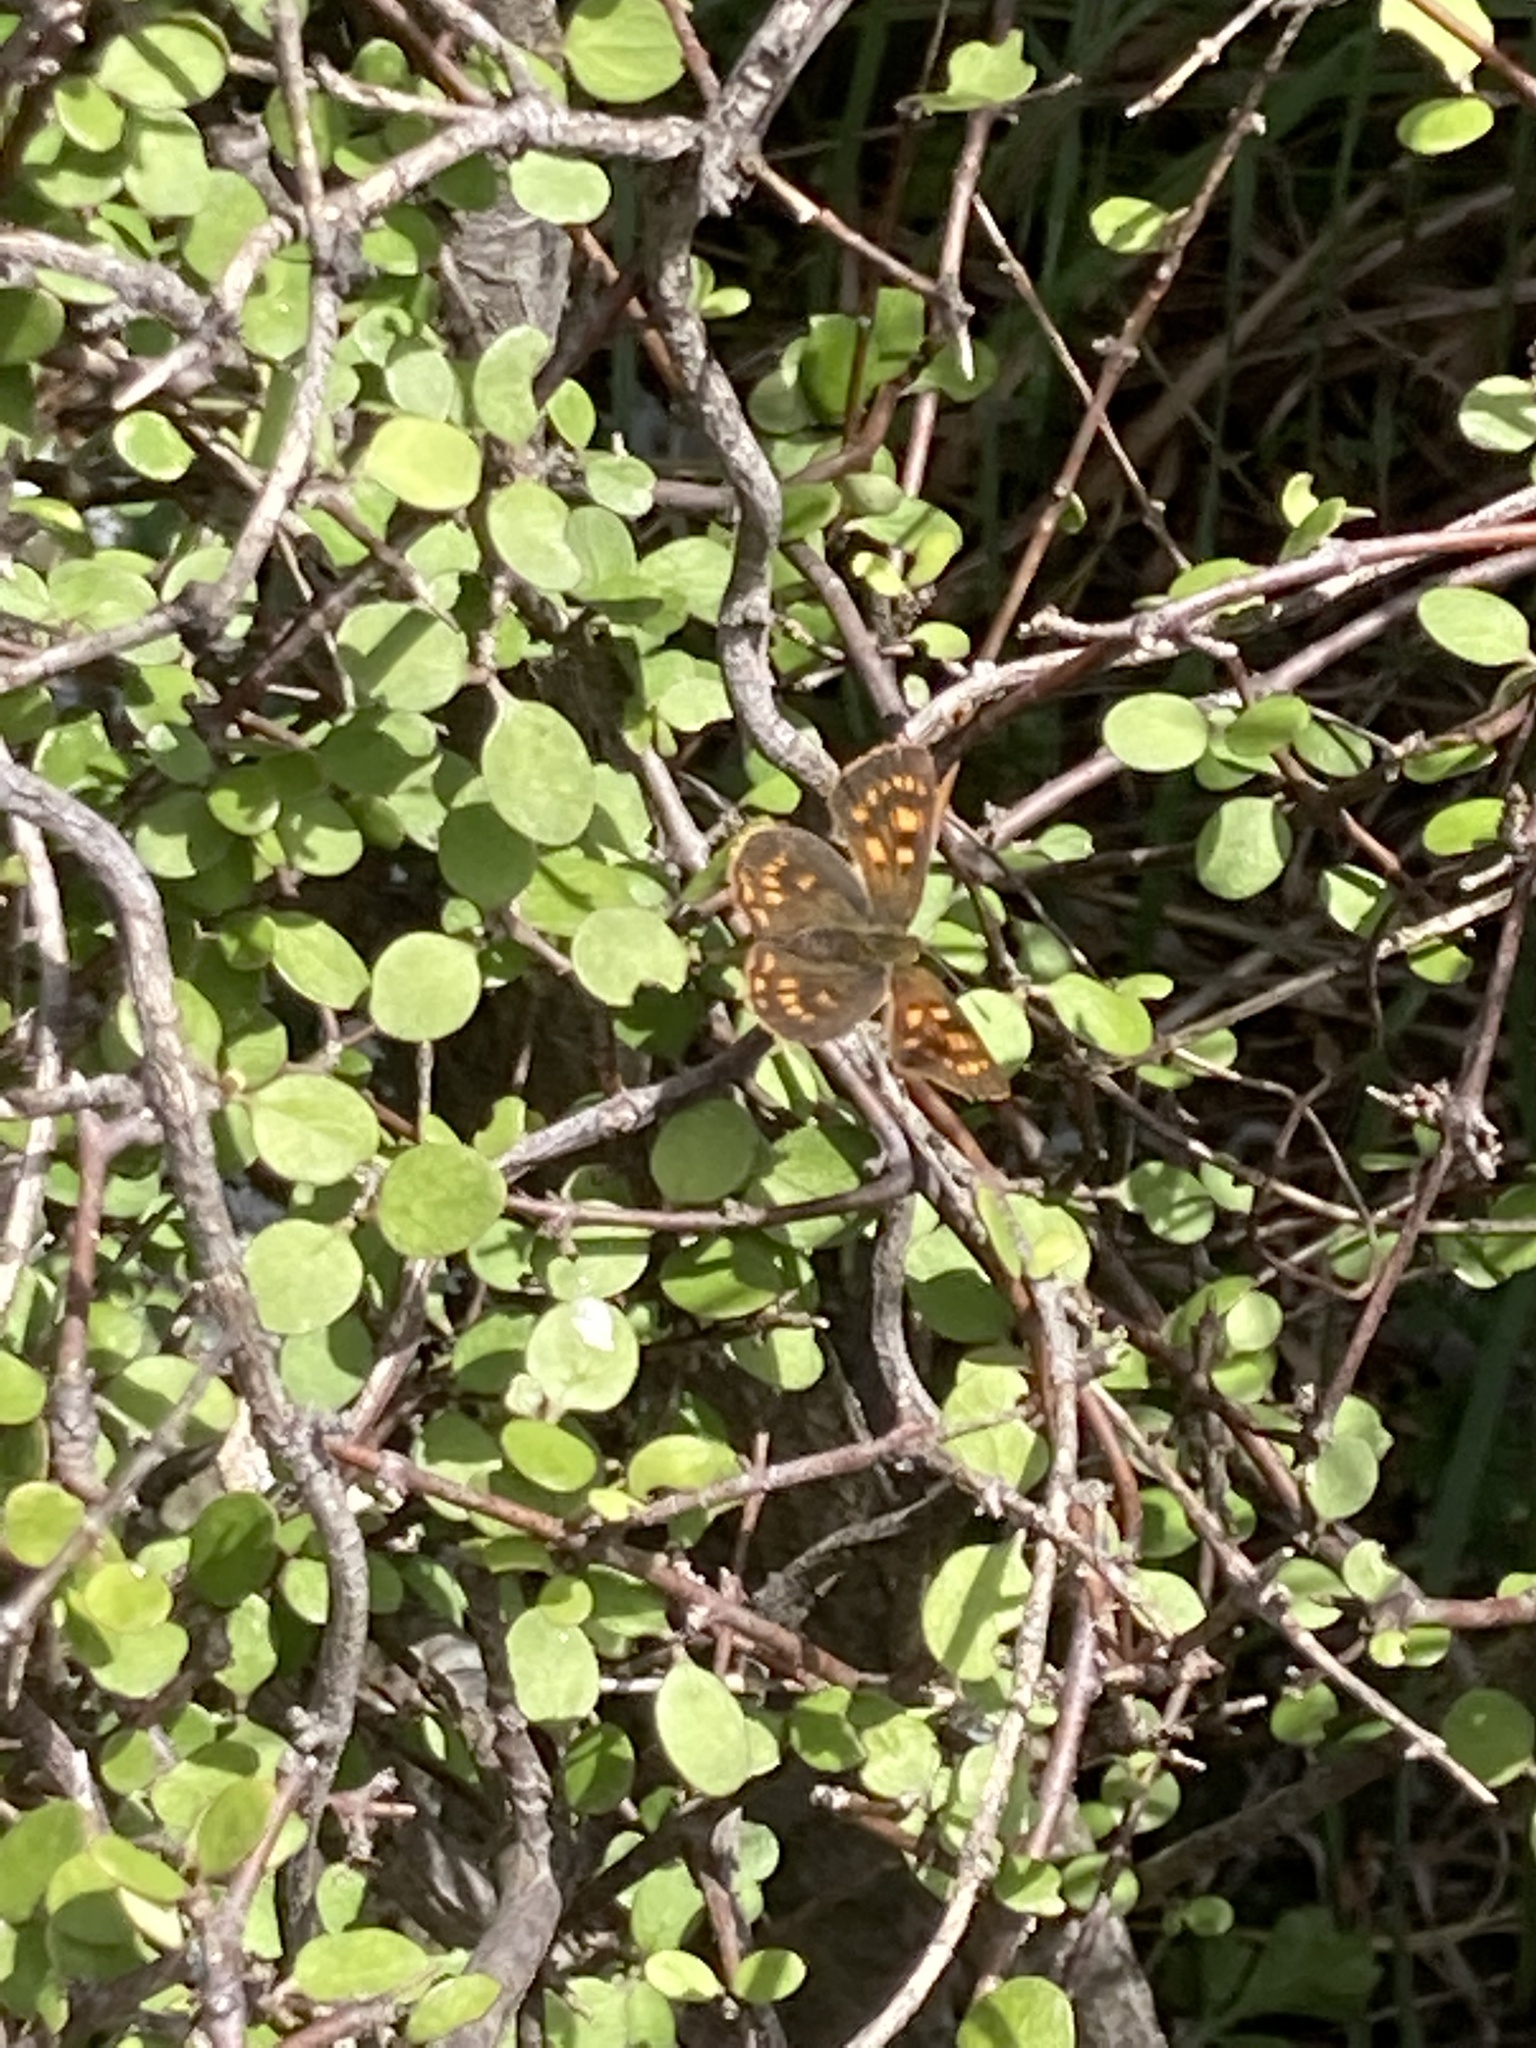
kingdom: Animalia
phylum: Arthropoda
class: Insecta
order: Lepidoptera
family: Lycaenidae
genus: Lycaena
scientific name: Lycaena feredayi
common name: Glade copper
